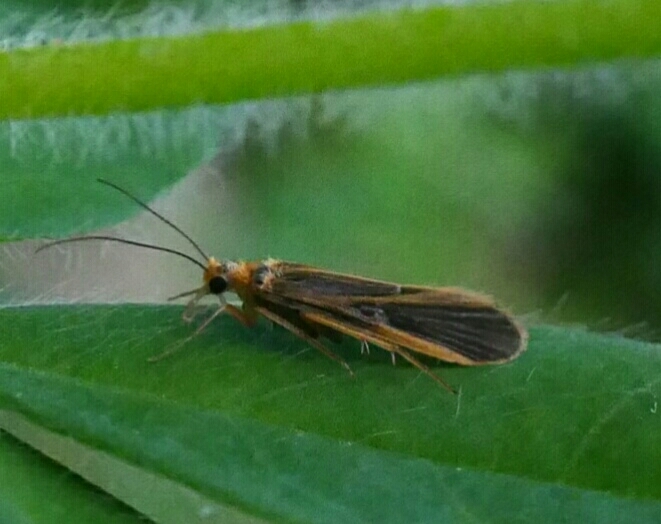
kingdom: Animalia
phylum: Arthropoda
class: Insecta
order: Trichoptera
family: Philopotamidae
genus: Chimarra
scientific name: Chimarra marginata
